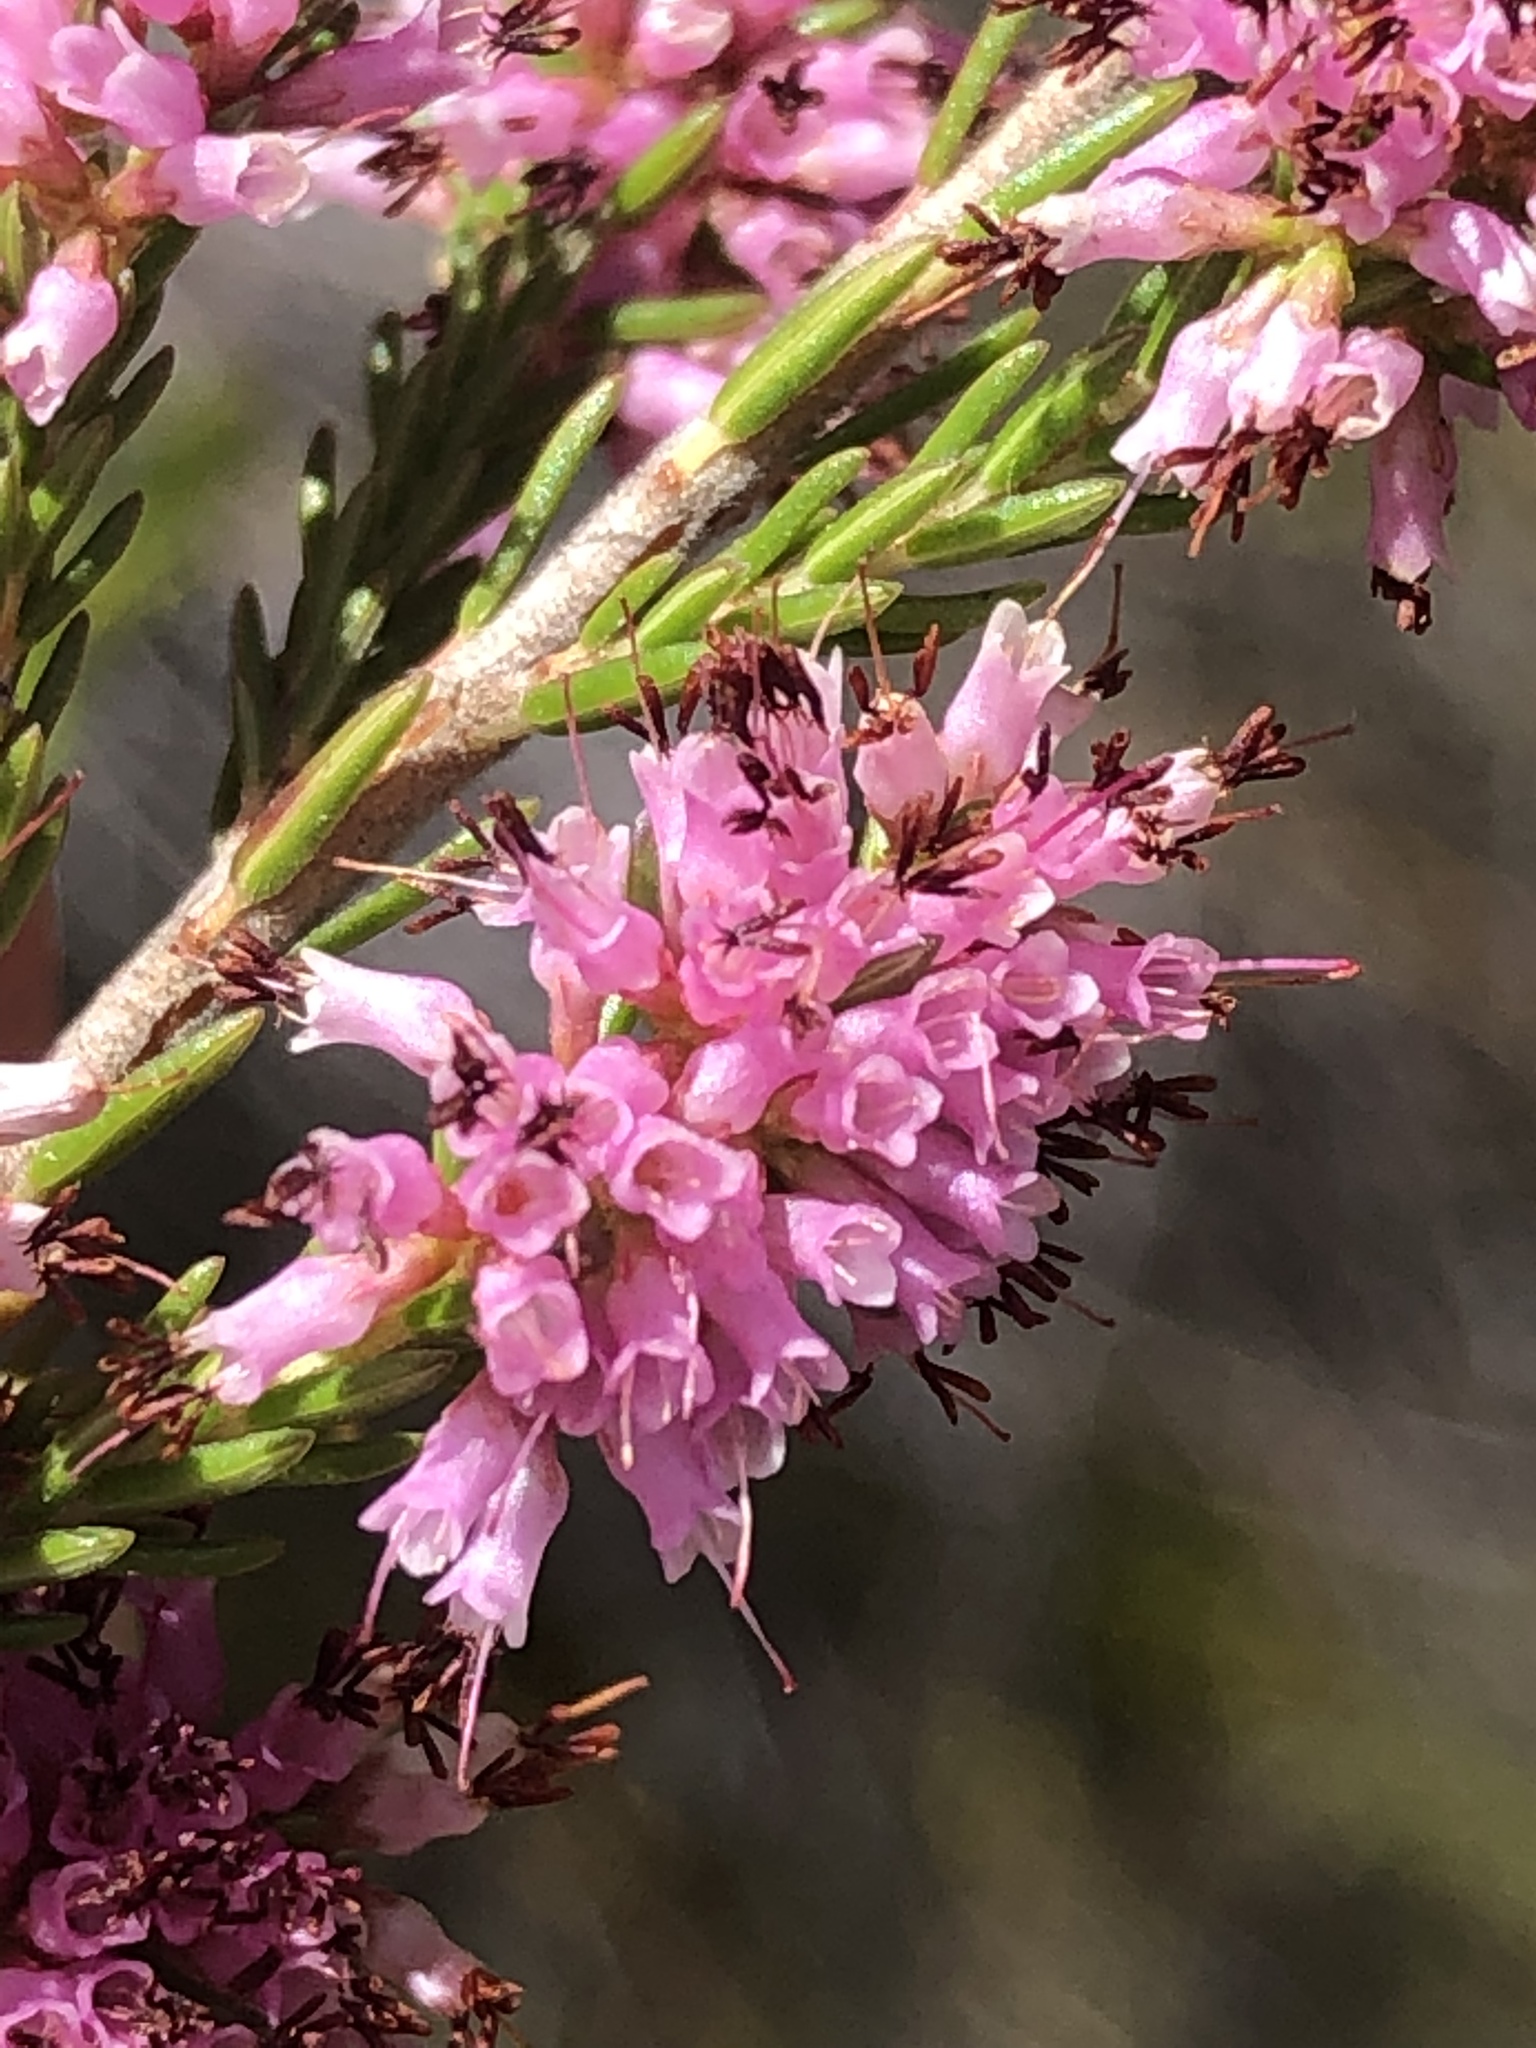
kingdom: Plantae
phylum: Tracheophyta
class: Magnoliopsida
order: Ericales
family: Ericaceae
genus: Erica
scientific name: Erica uberiflora
